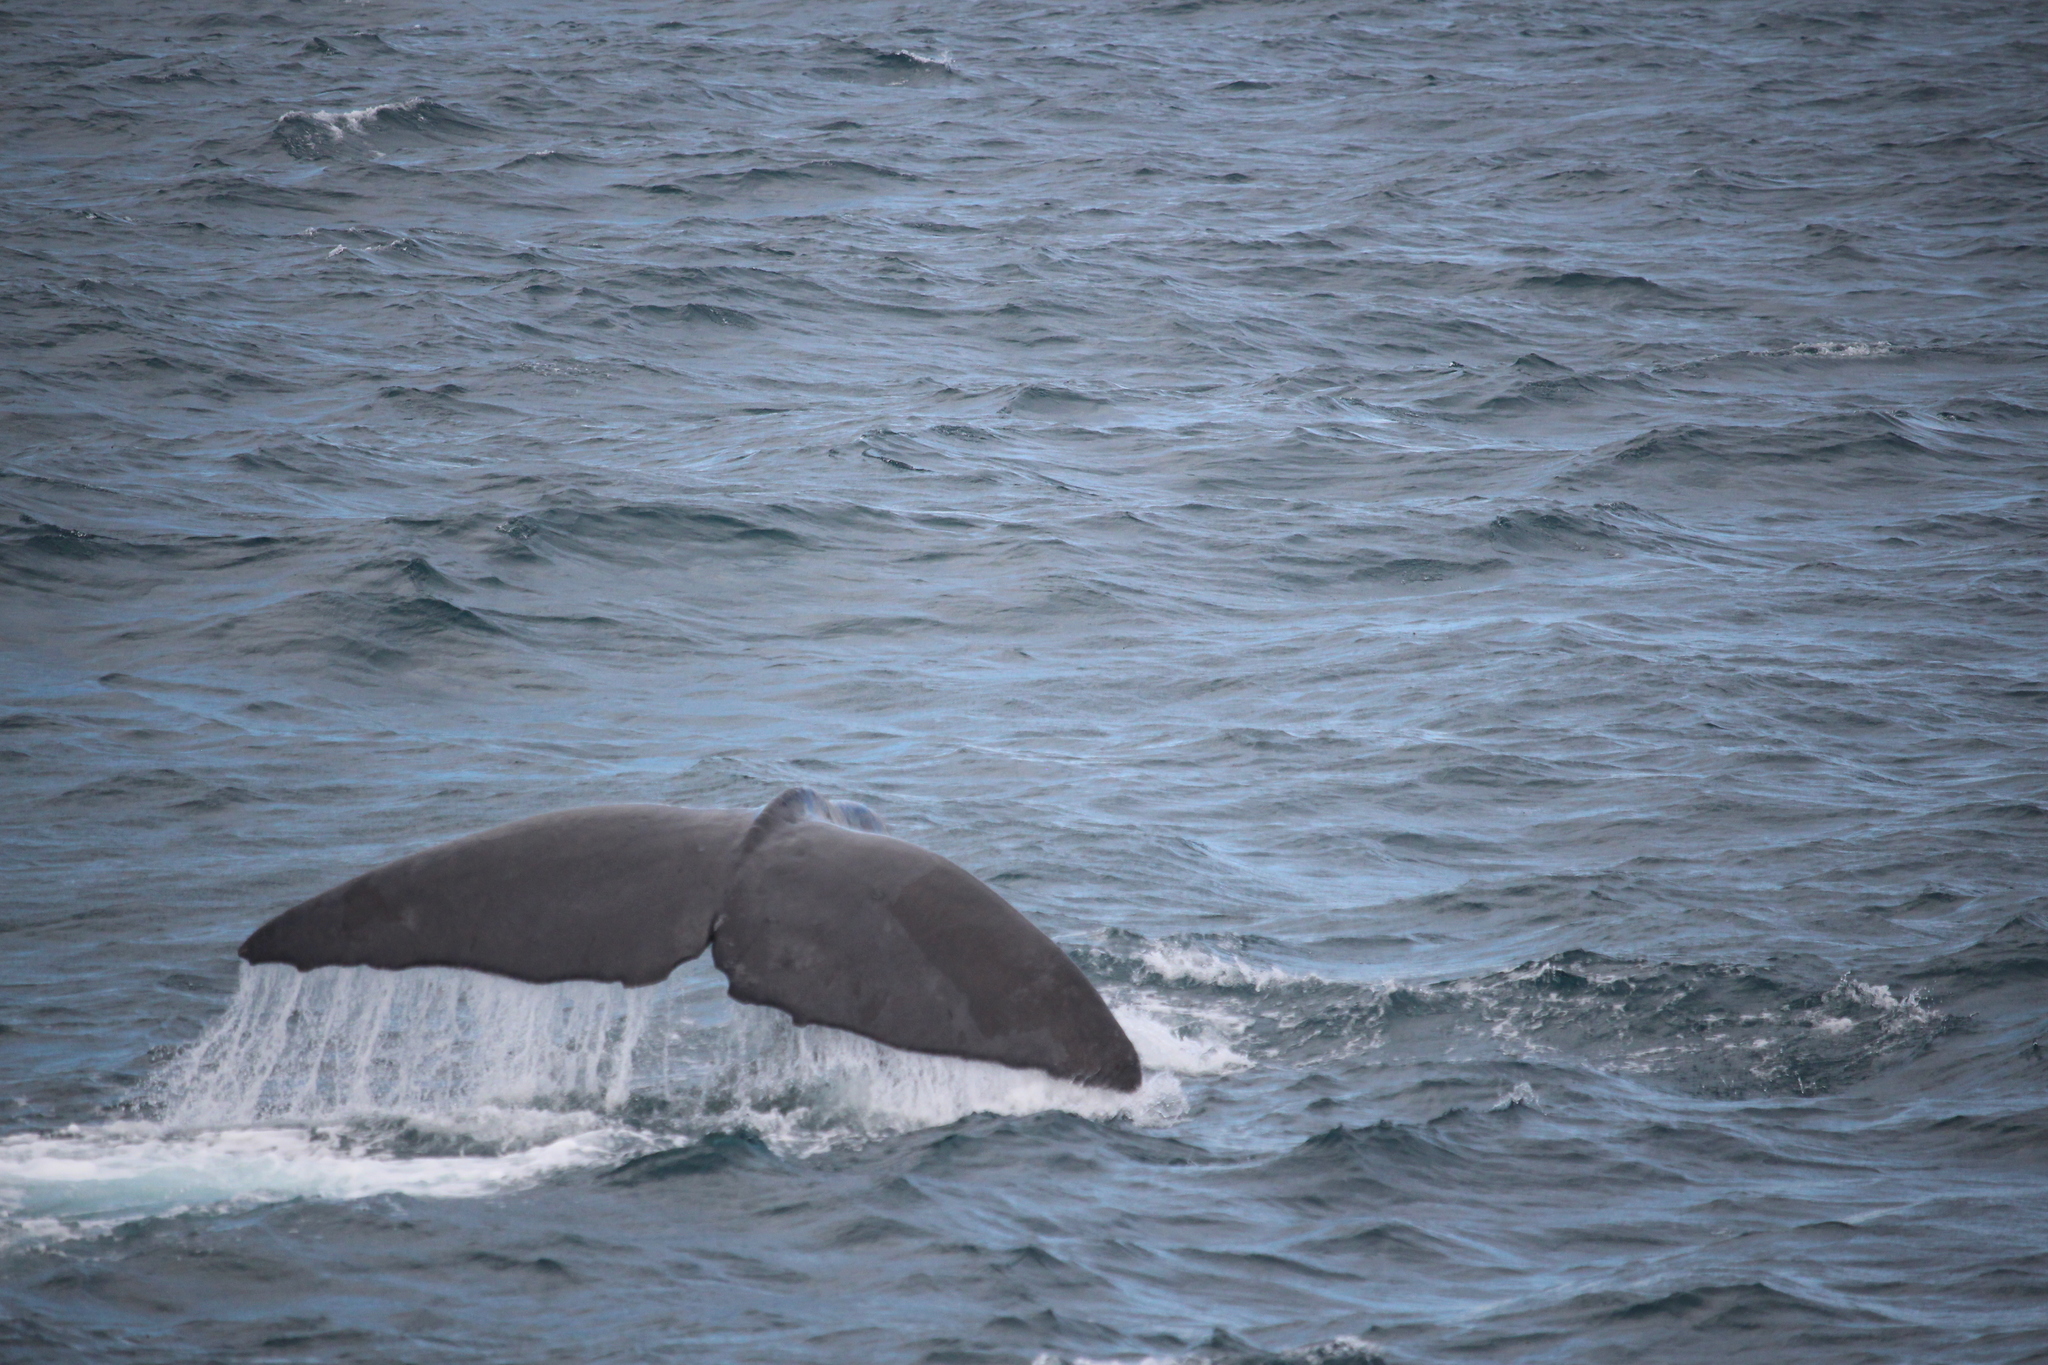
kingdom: Animalia
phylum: Chordata
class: Mammalia
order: Cetacea
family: Physeteridae
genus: Physeter
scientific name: Physeter macrocephalus
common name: Sperm whale
